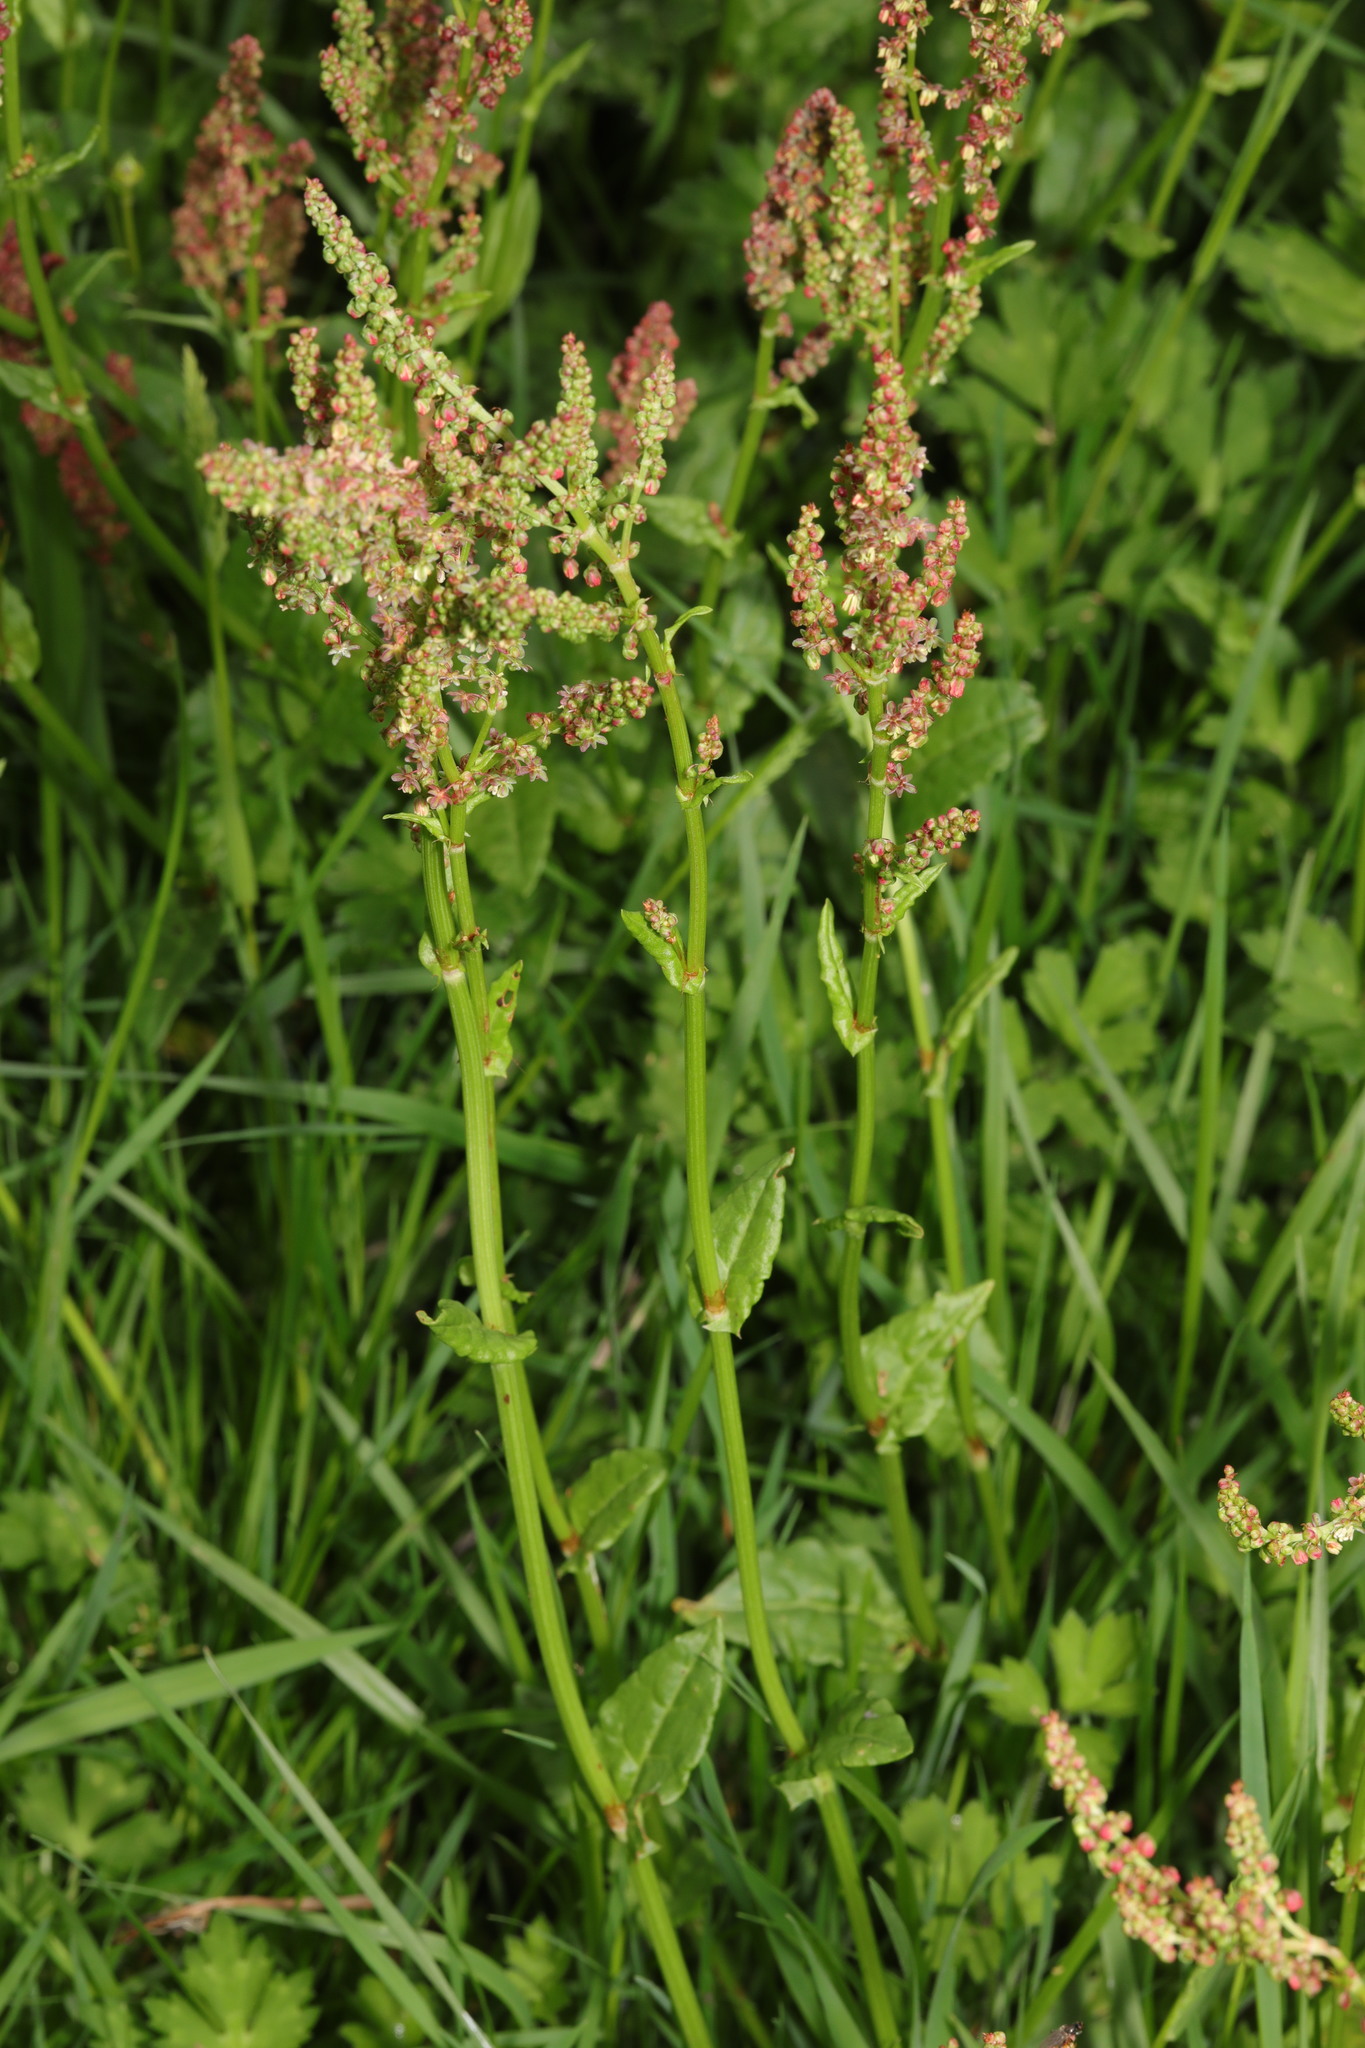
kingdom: Plantae
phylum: Tracheophyta
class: Magnoliopsida
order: Caryophyllales
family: Polygonaceae
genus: Rumex
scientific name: Rumex acetosa
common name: Garden sorrel
